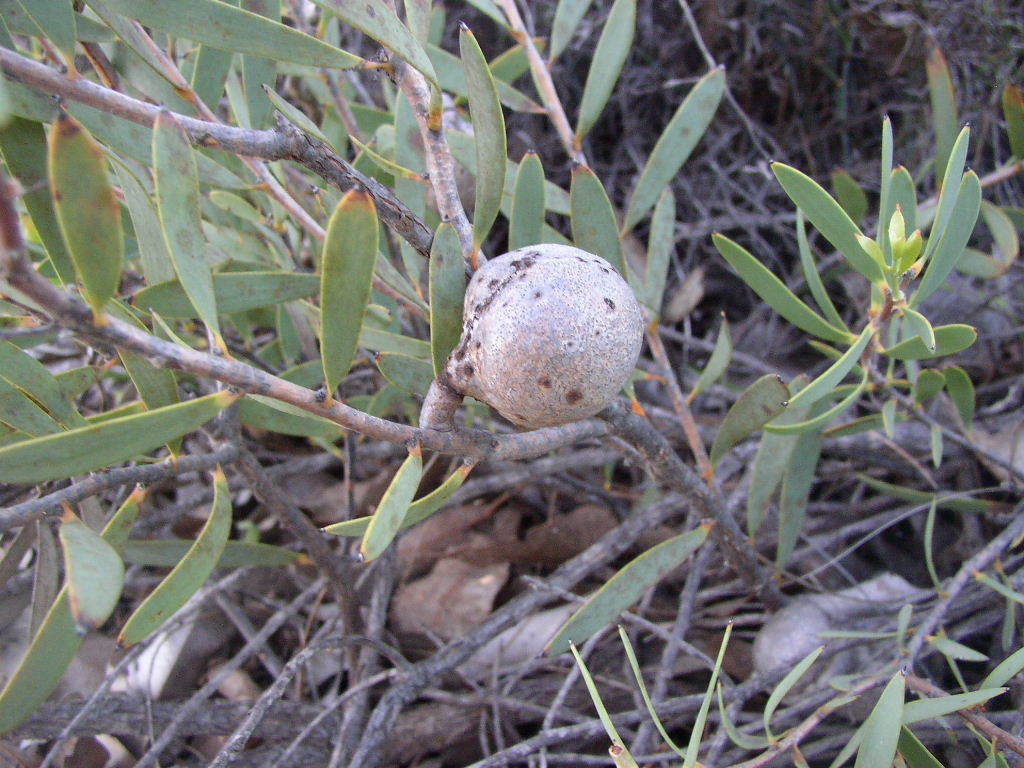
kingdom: Plantae
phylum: Tracheophyta
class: Magnoliopsida
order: Proteales
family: Proteaceae
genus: Hakea
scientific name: Hakea incrassata
